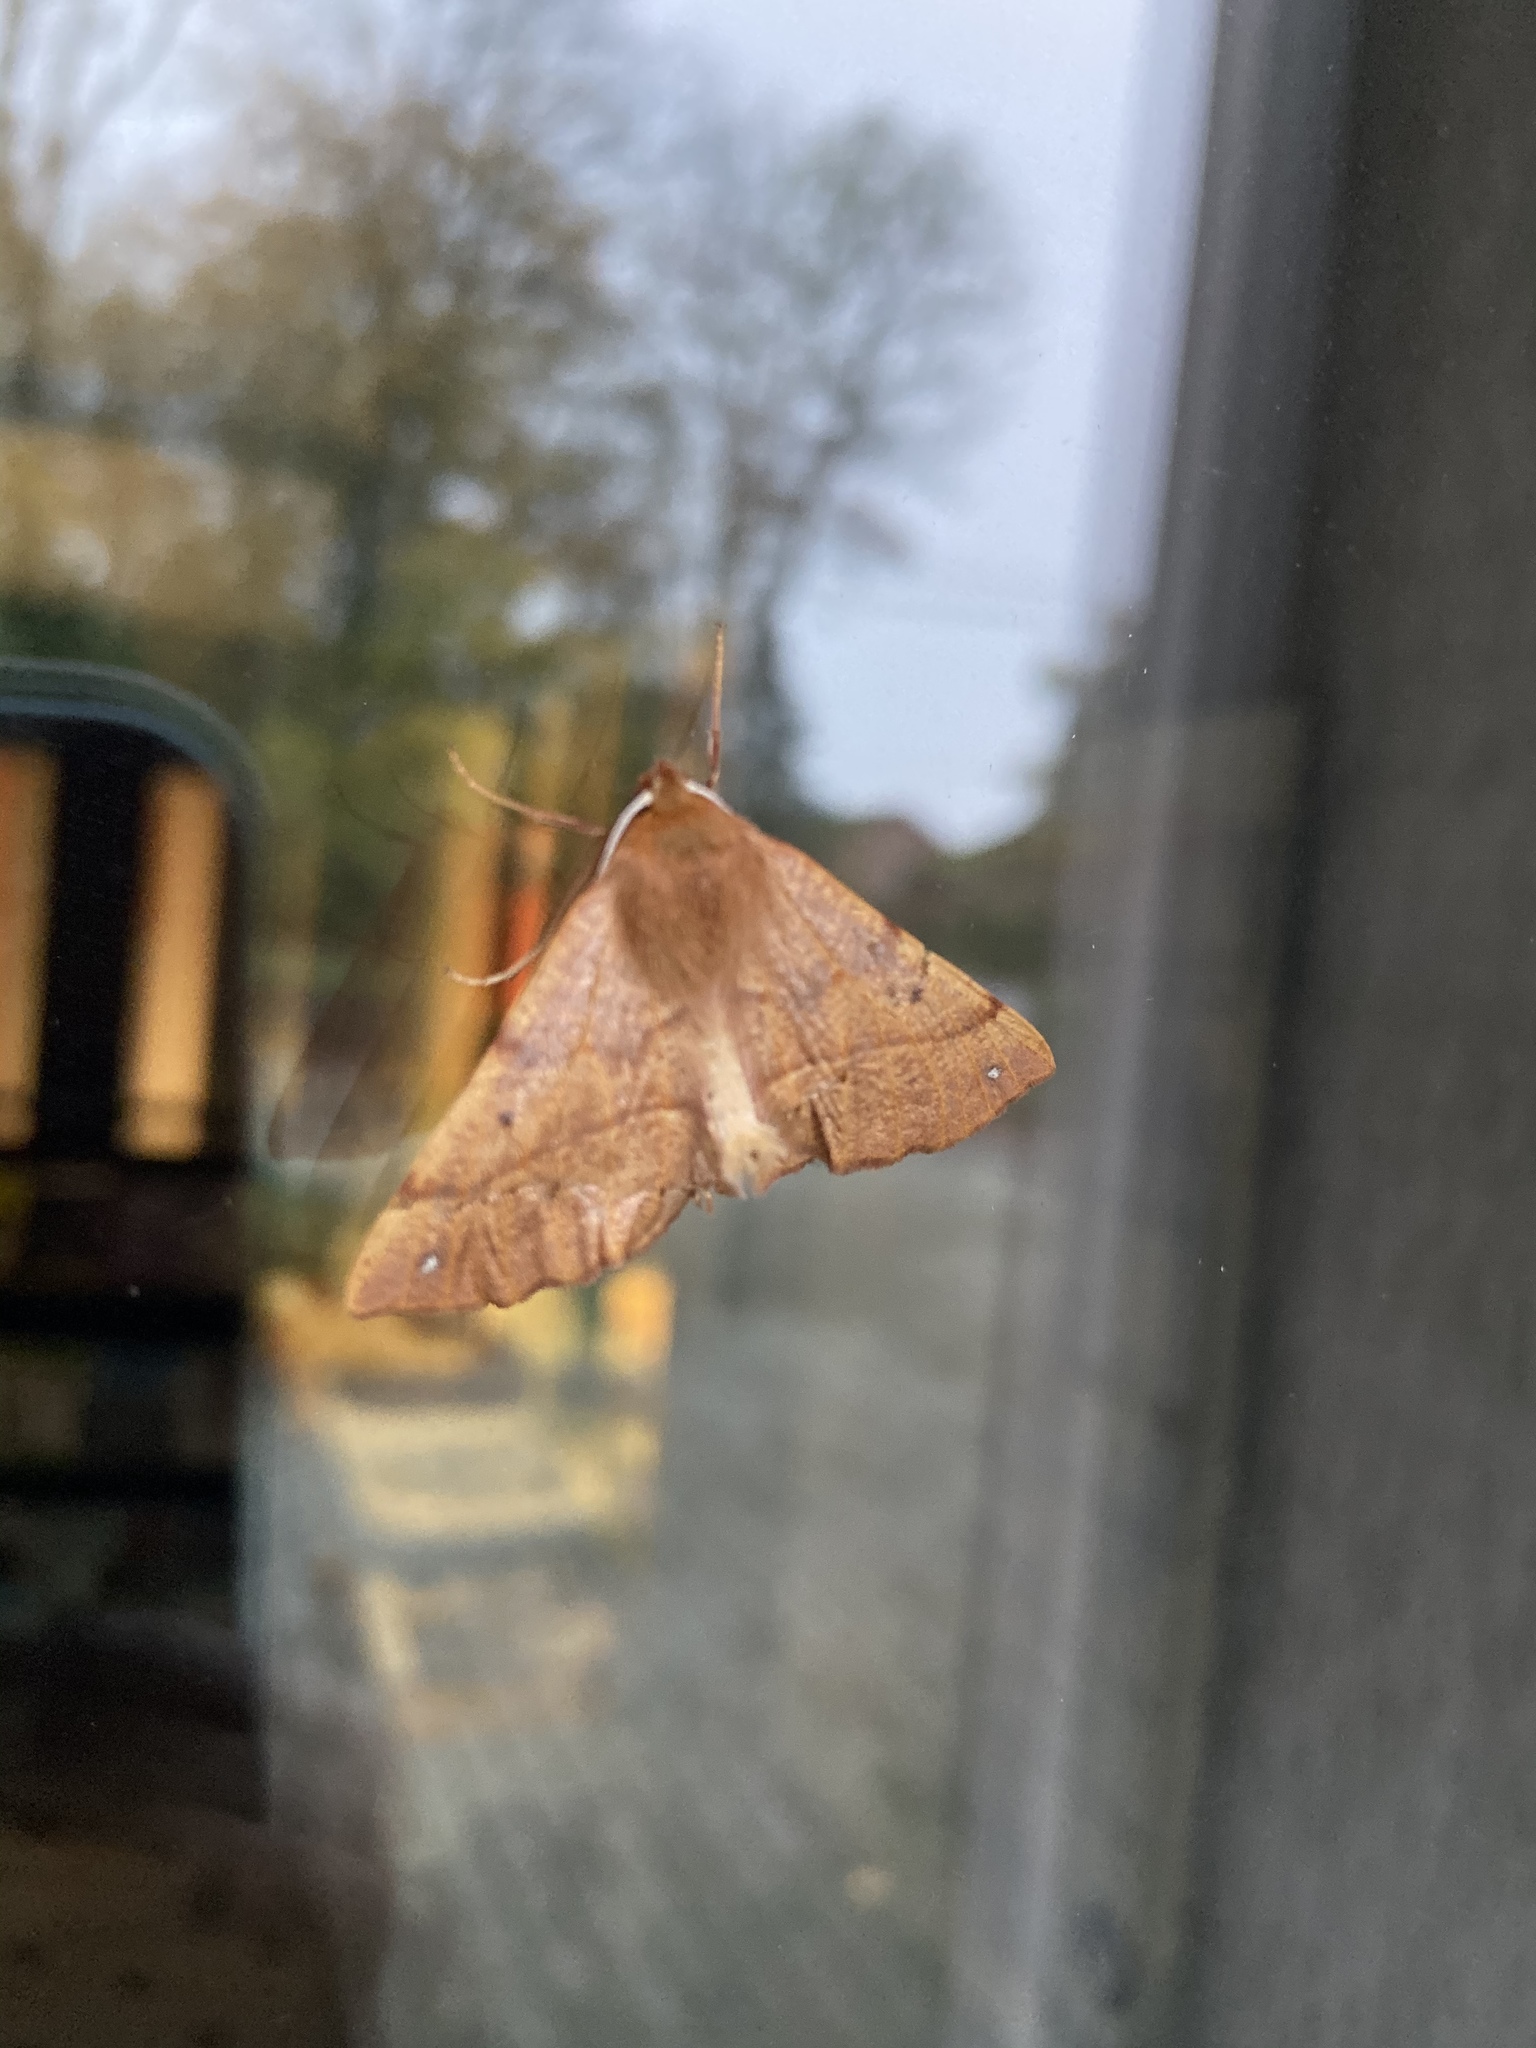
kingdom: Animalia
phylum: Arthropoda
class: Insecta
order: Lepidoptera
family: Geometridae
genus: Colotois
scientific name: Colotois pennaria
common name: Feathered thorn
